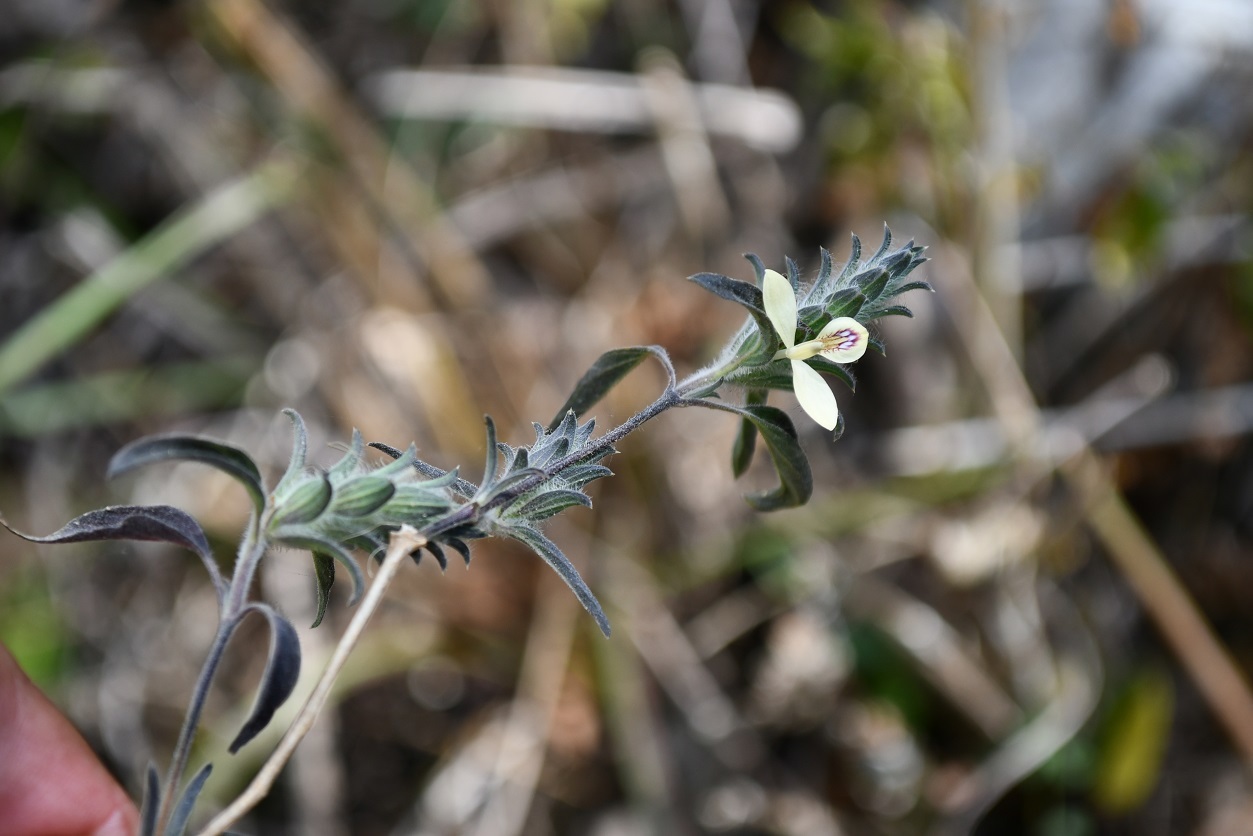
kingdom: Plantae
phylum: Tracheophyta
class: Magnoliopsida
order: Lamiales
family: Acanthaceae
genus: Tetramerium
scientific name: Tetramerium nervosum
